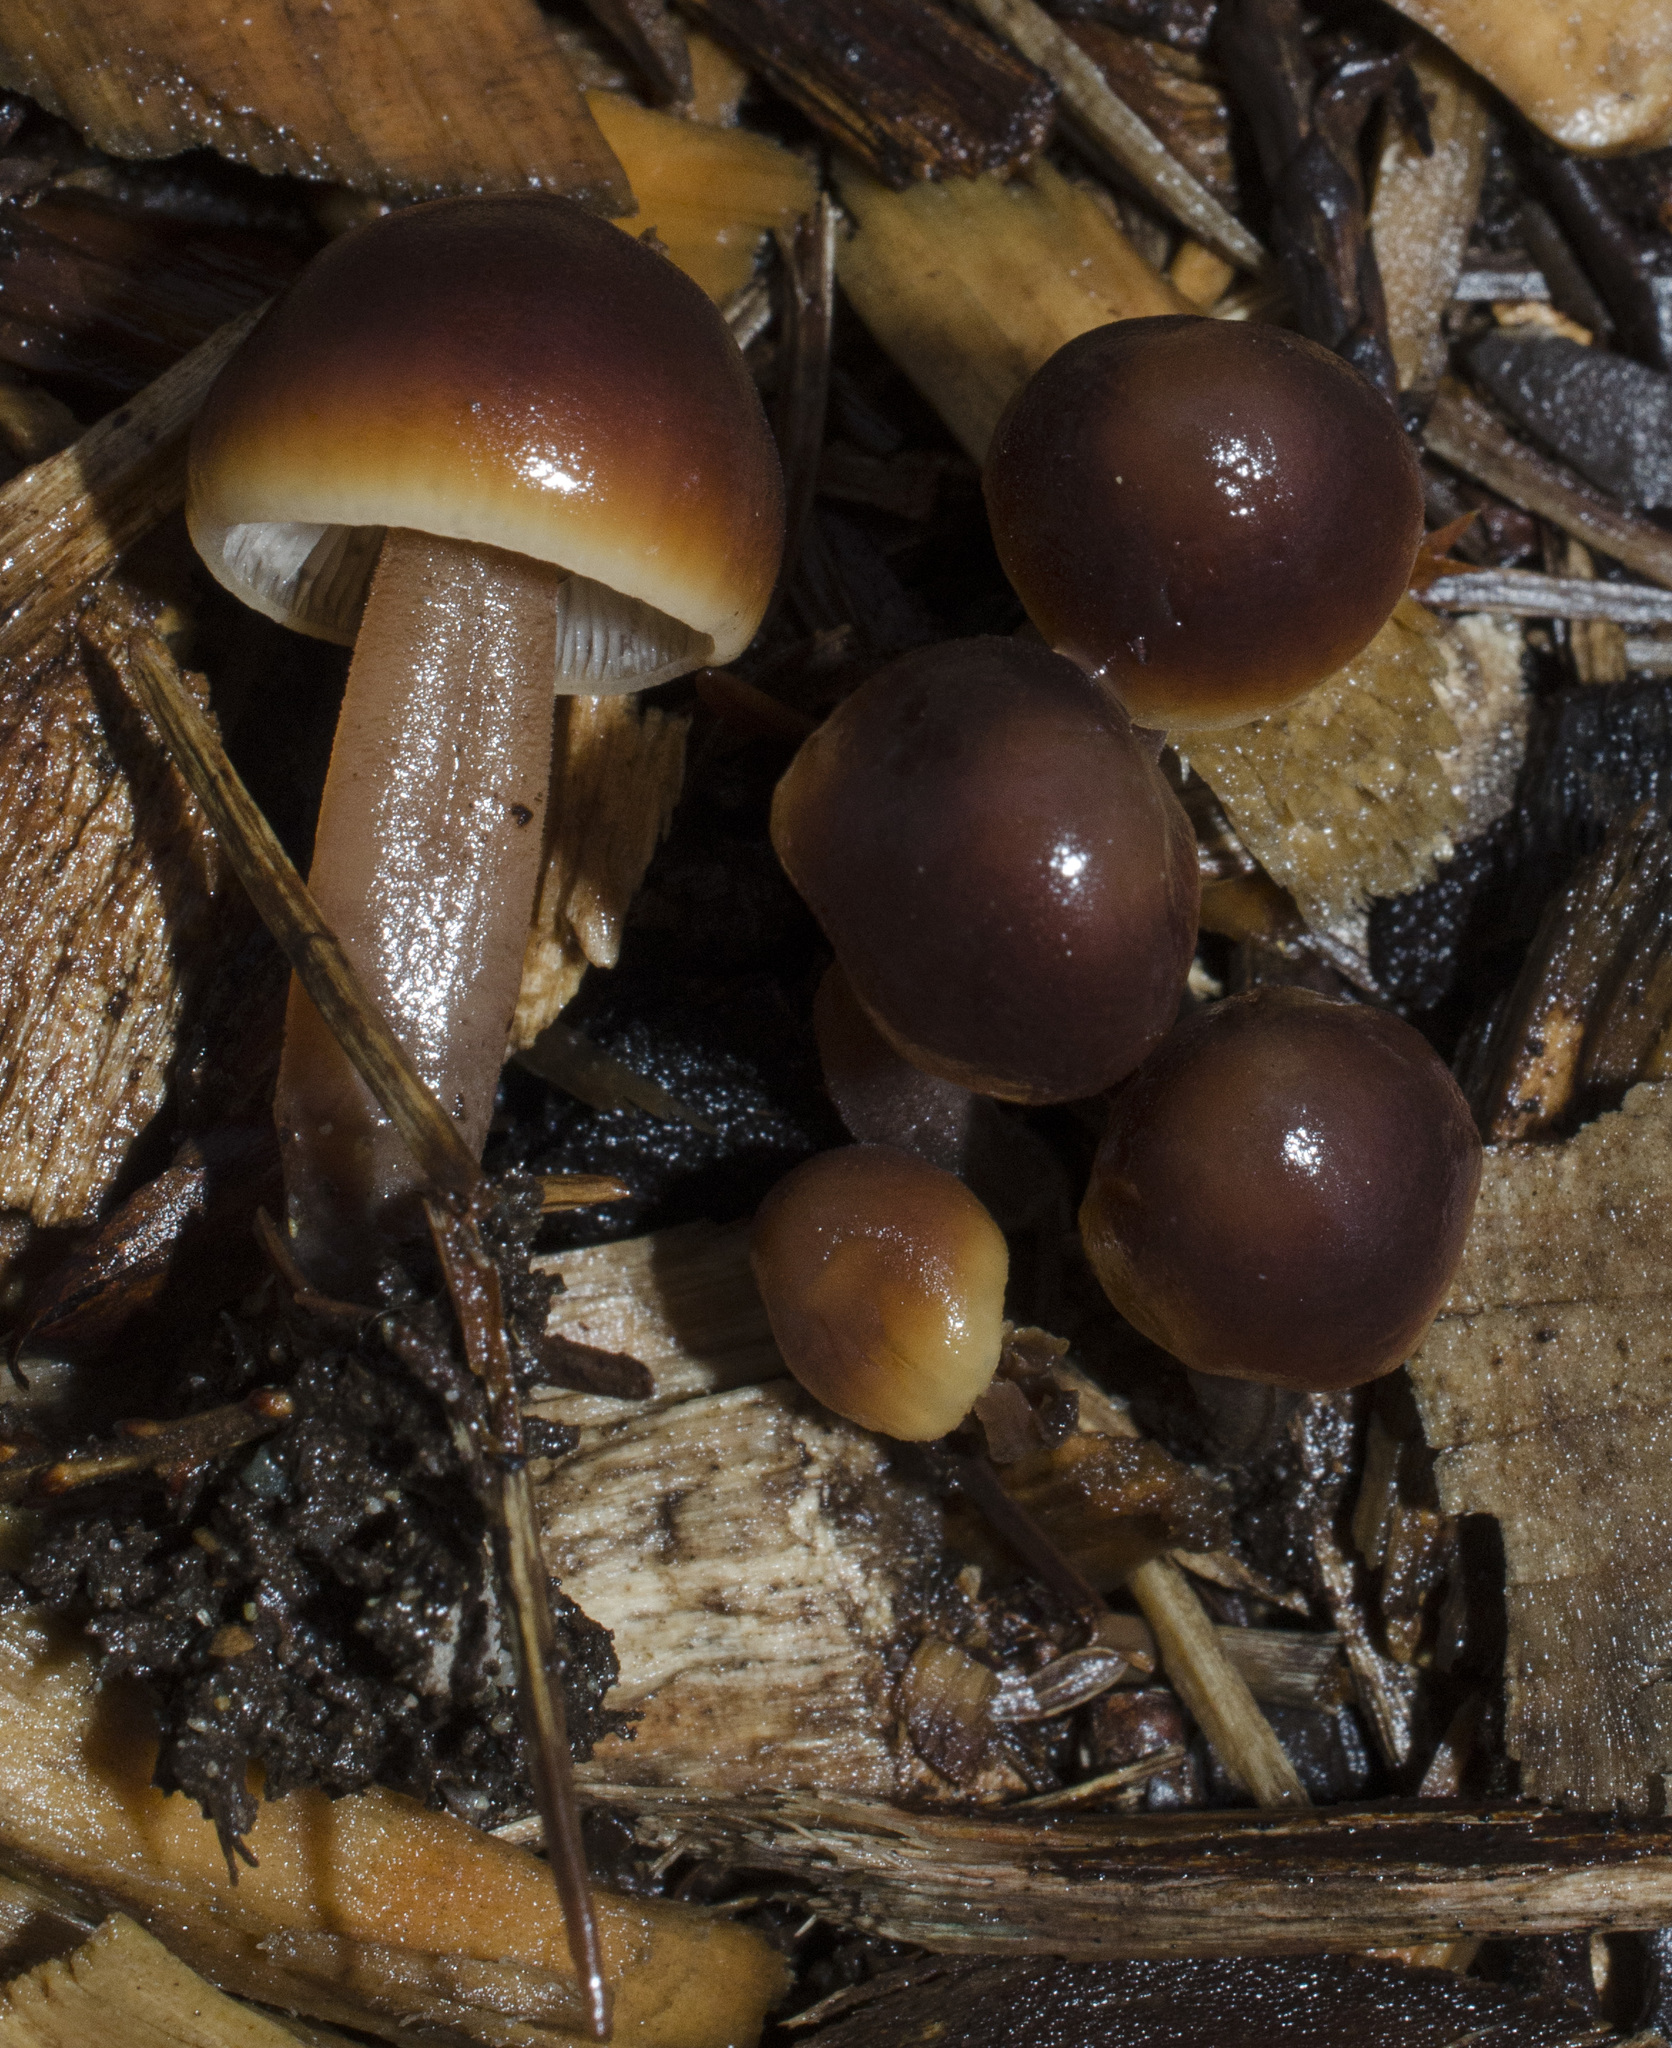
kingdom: Fungi
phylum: Basidiomycota
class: Agaricomycetes
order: Agaricales
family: Macrocystidiaceae
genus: Macrocystidia
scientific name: Macrocystidia cucumis
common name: Cucumber cap
